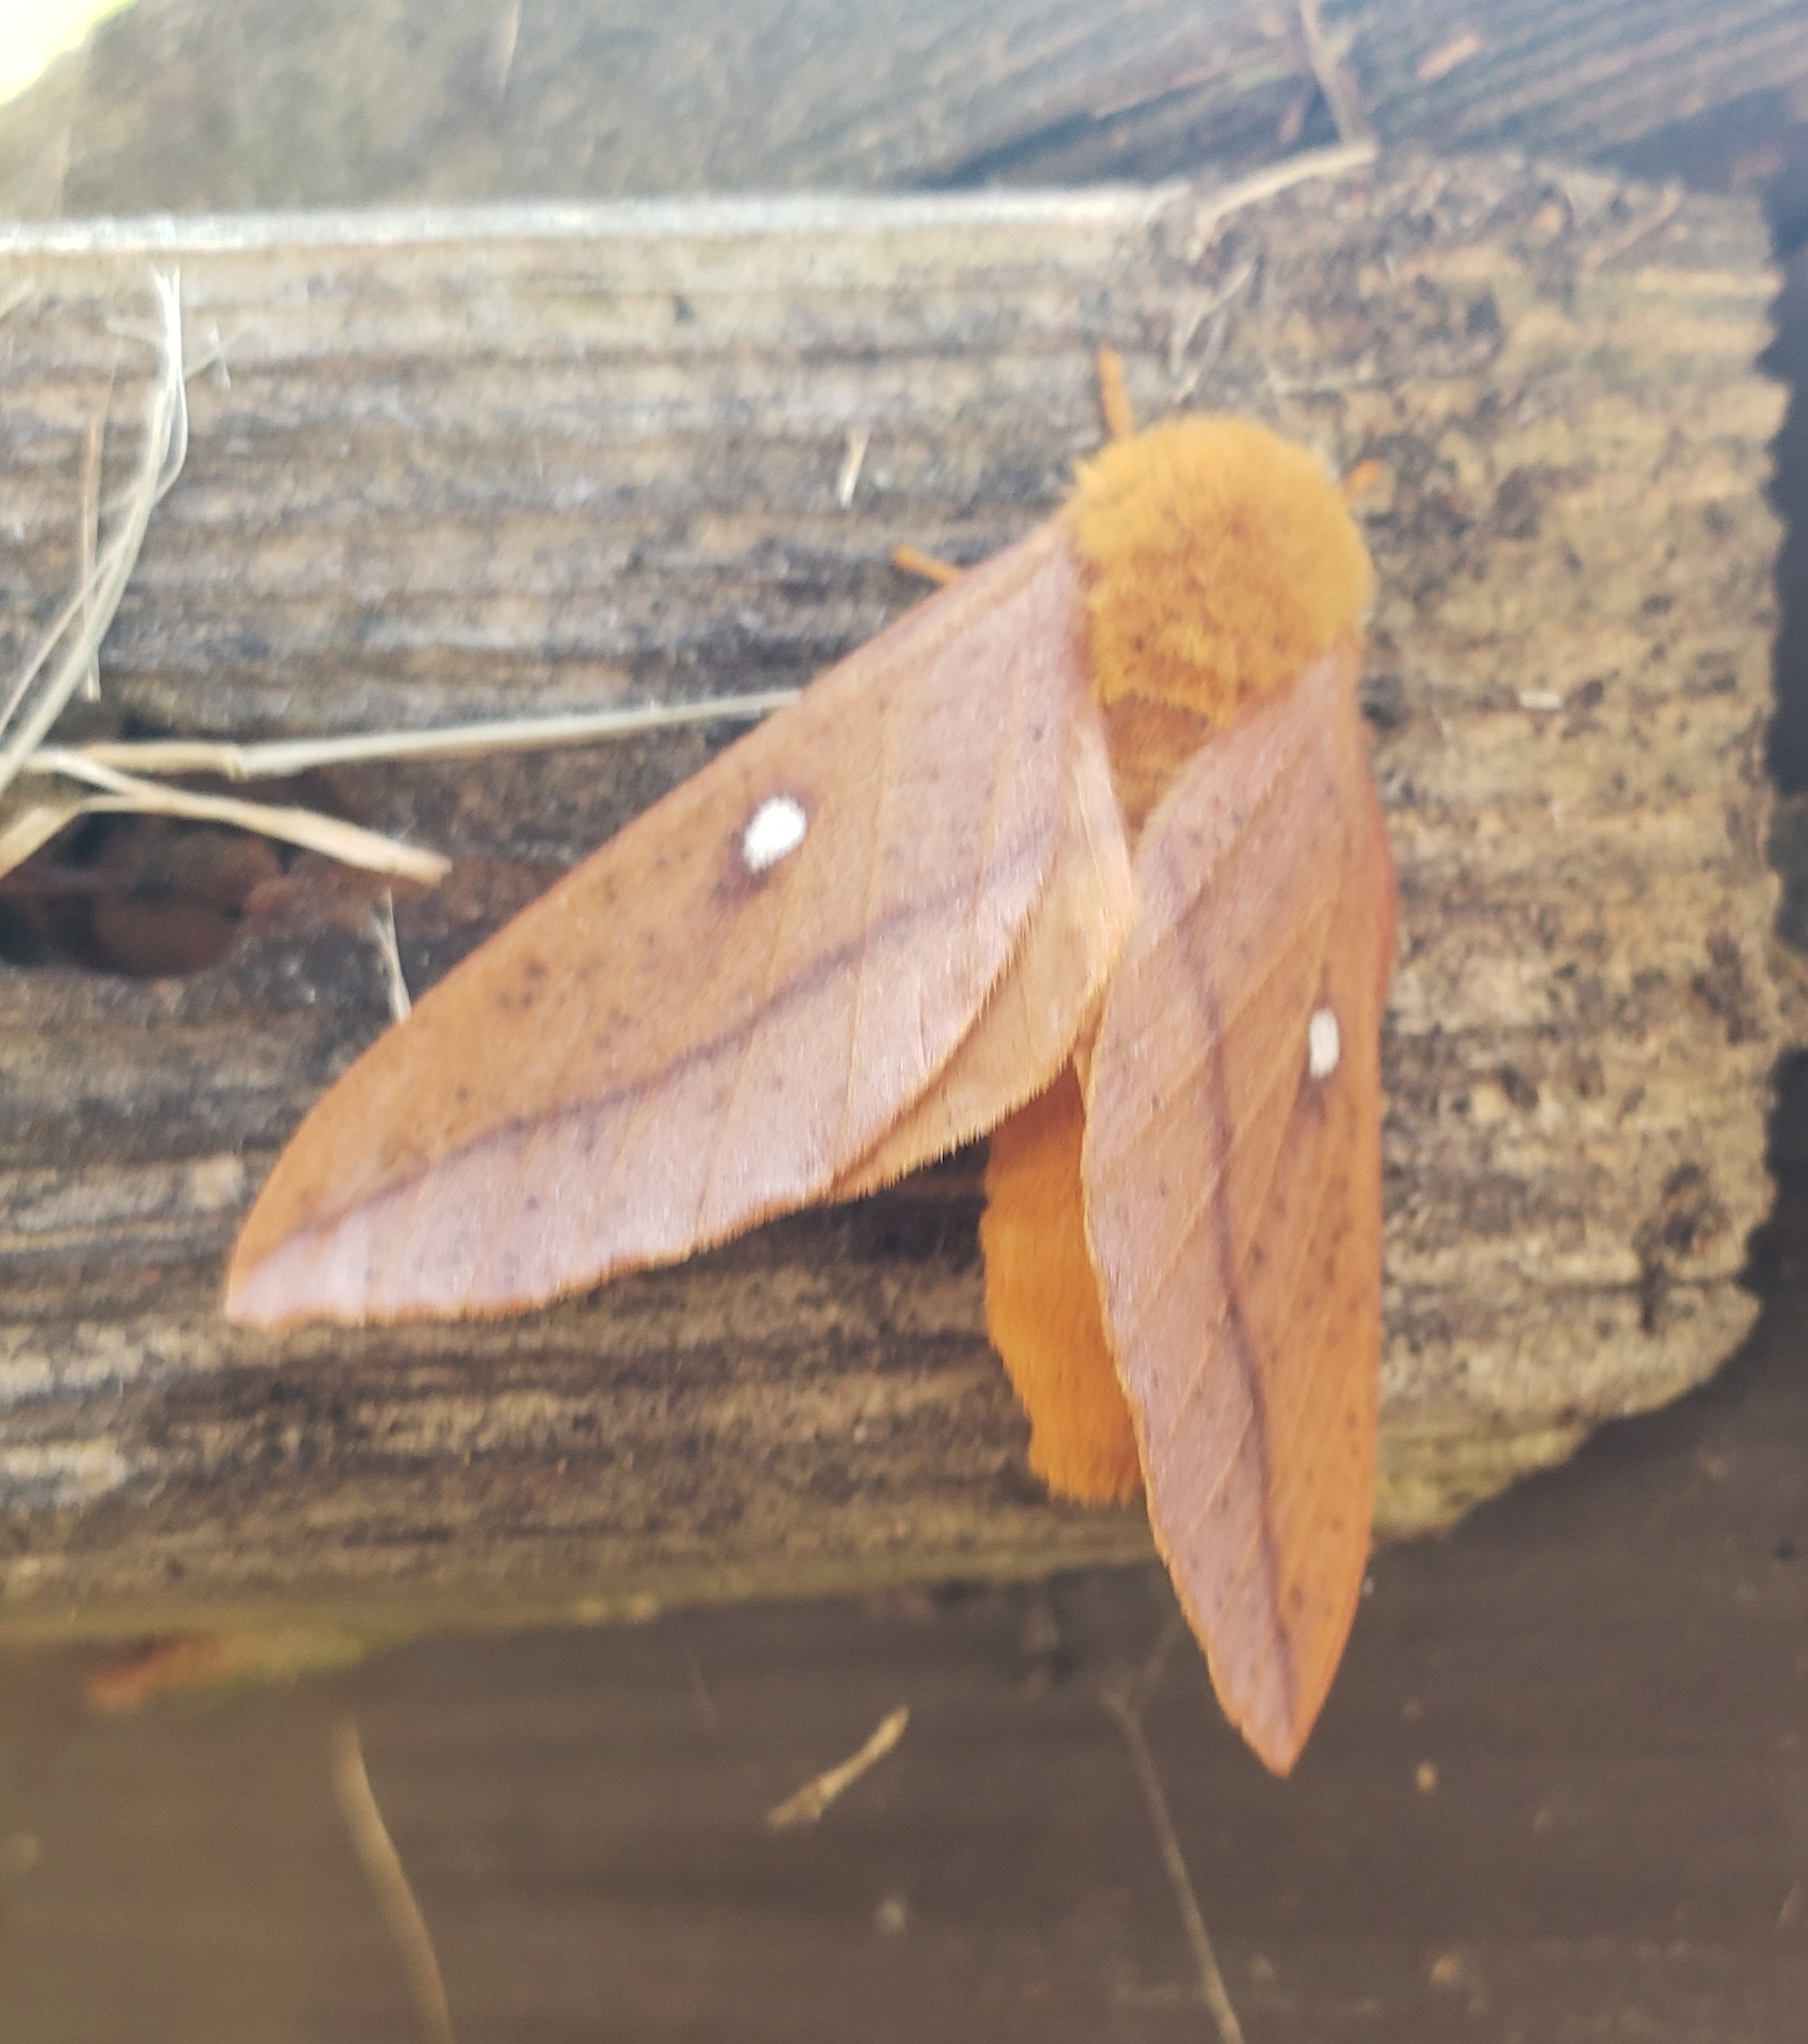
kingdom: Animalia
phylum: Arthropoda
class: Insecta
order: Lepidoptera
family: Saturniidae
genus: Anisota
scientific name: Anisota senatoria
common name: Orange-striped oakworm moth
